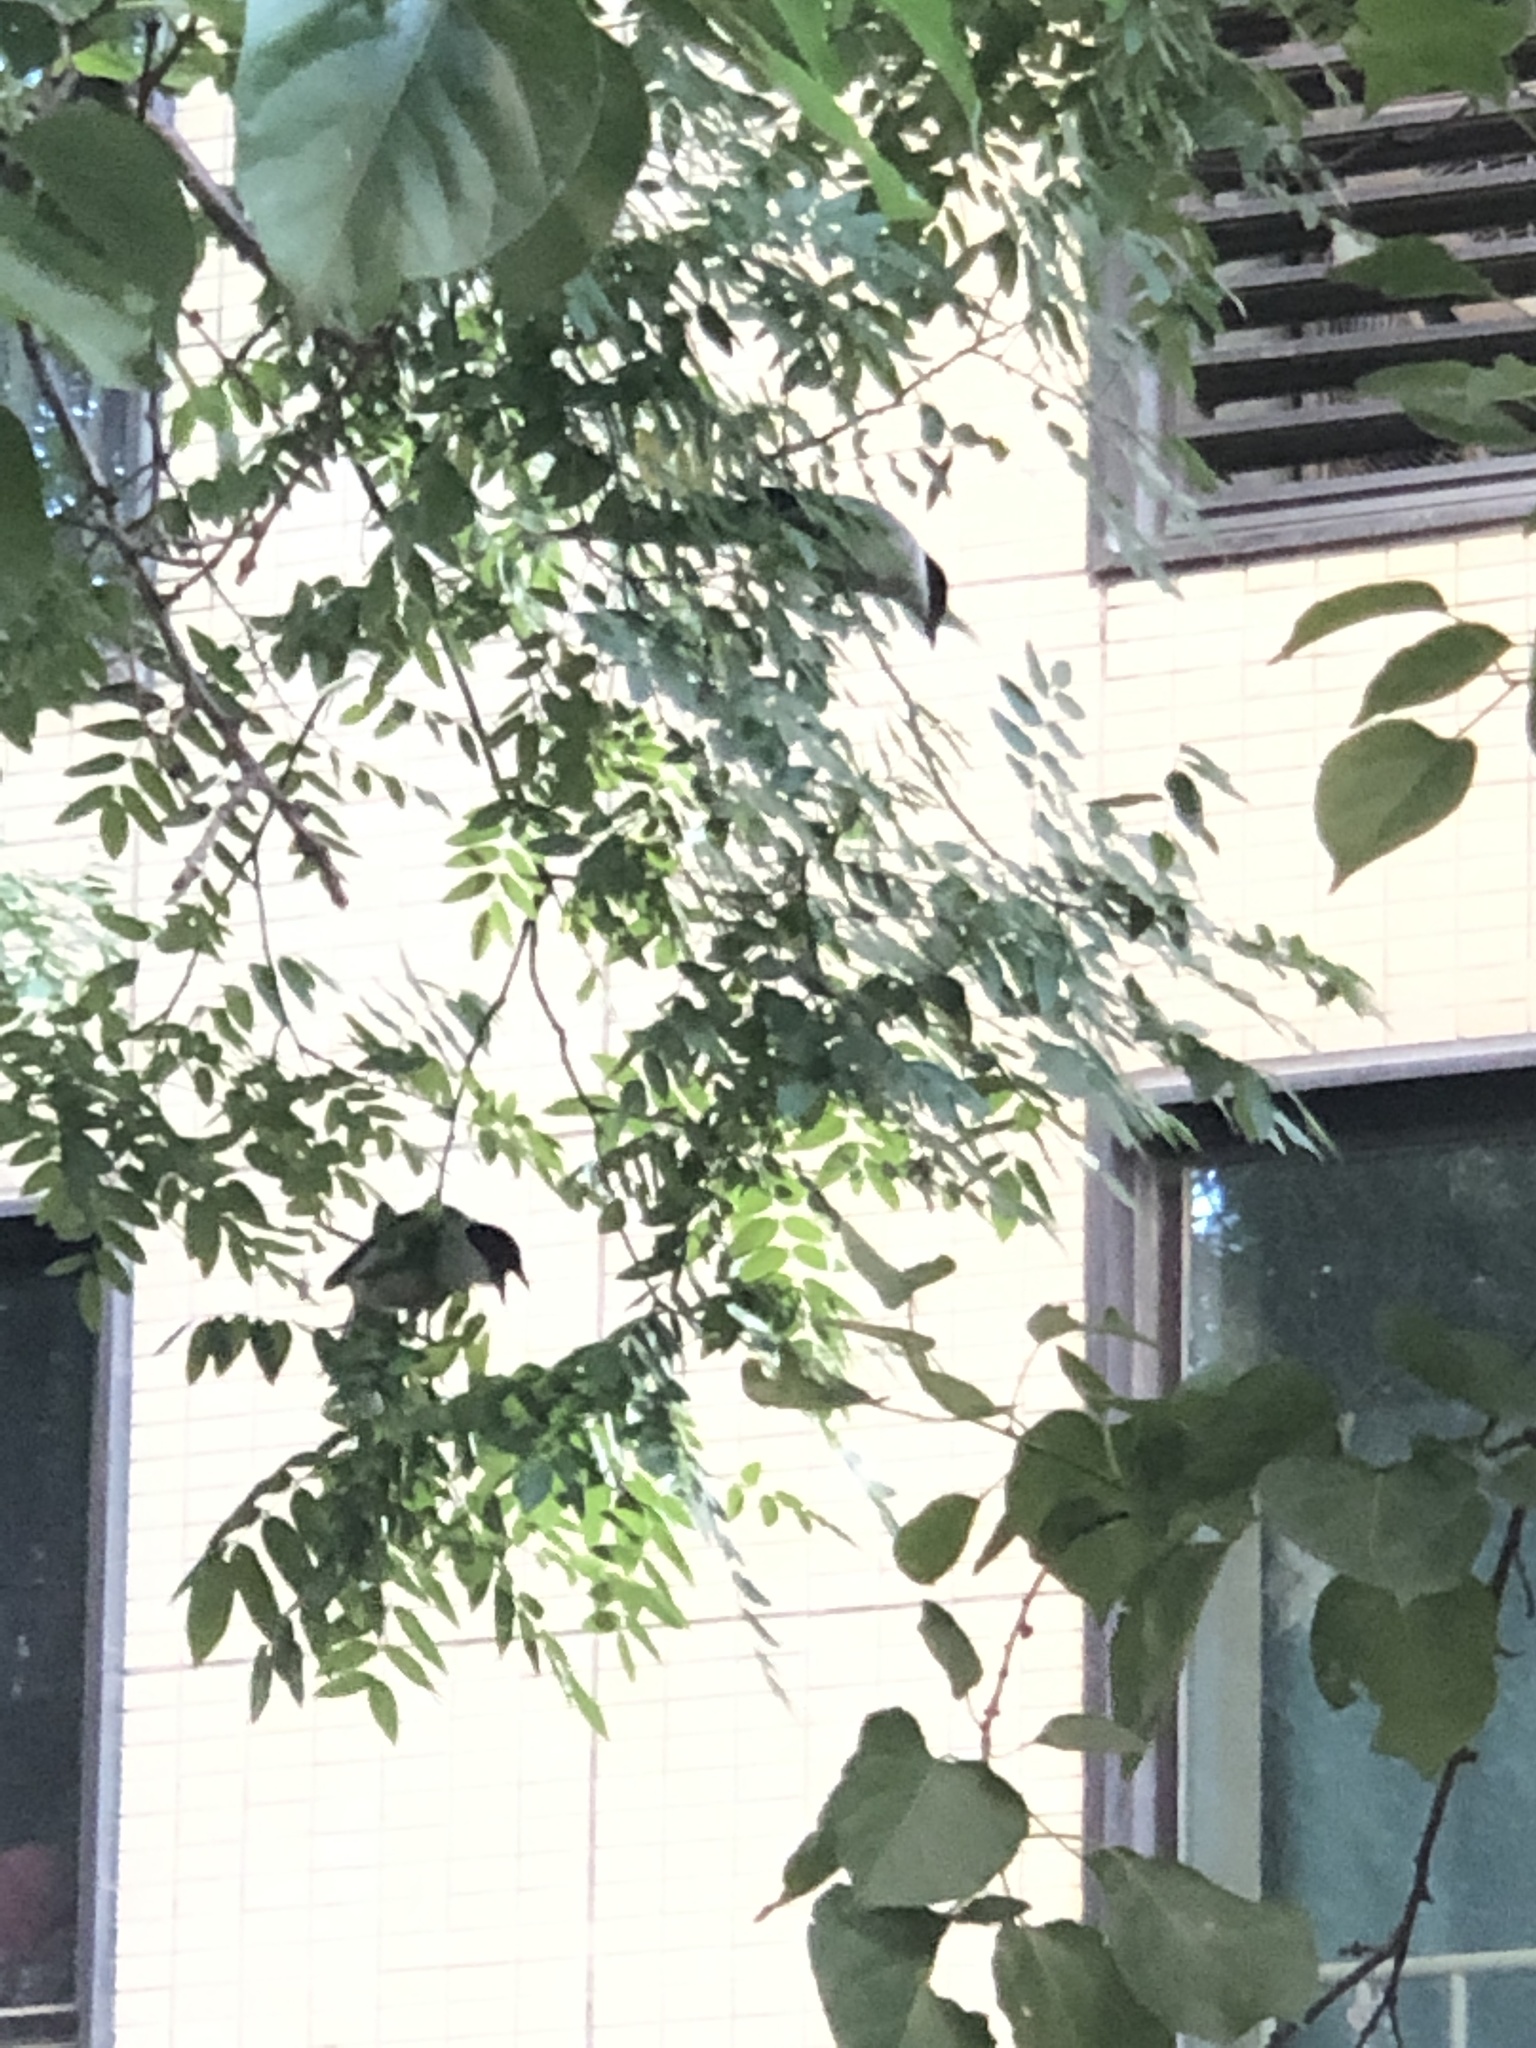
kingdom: Animalia
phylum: Chordata
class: Aves
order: Passeriformes
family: Corvidae
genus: Cyanopica
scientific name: Cyanopica cyanus
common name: Azure-winged magpie
